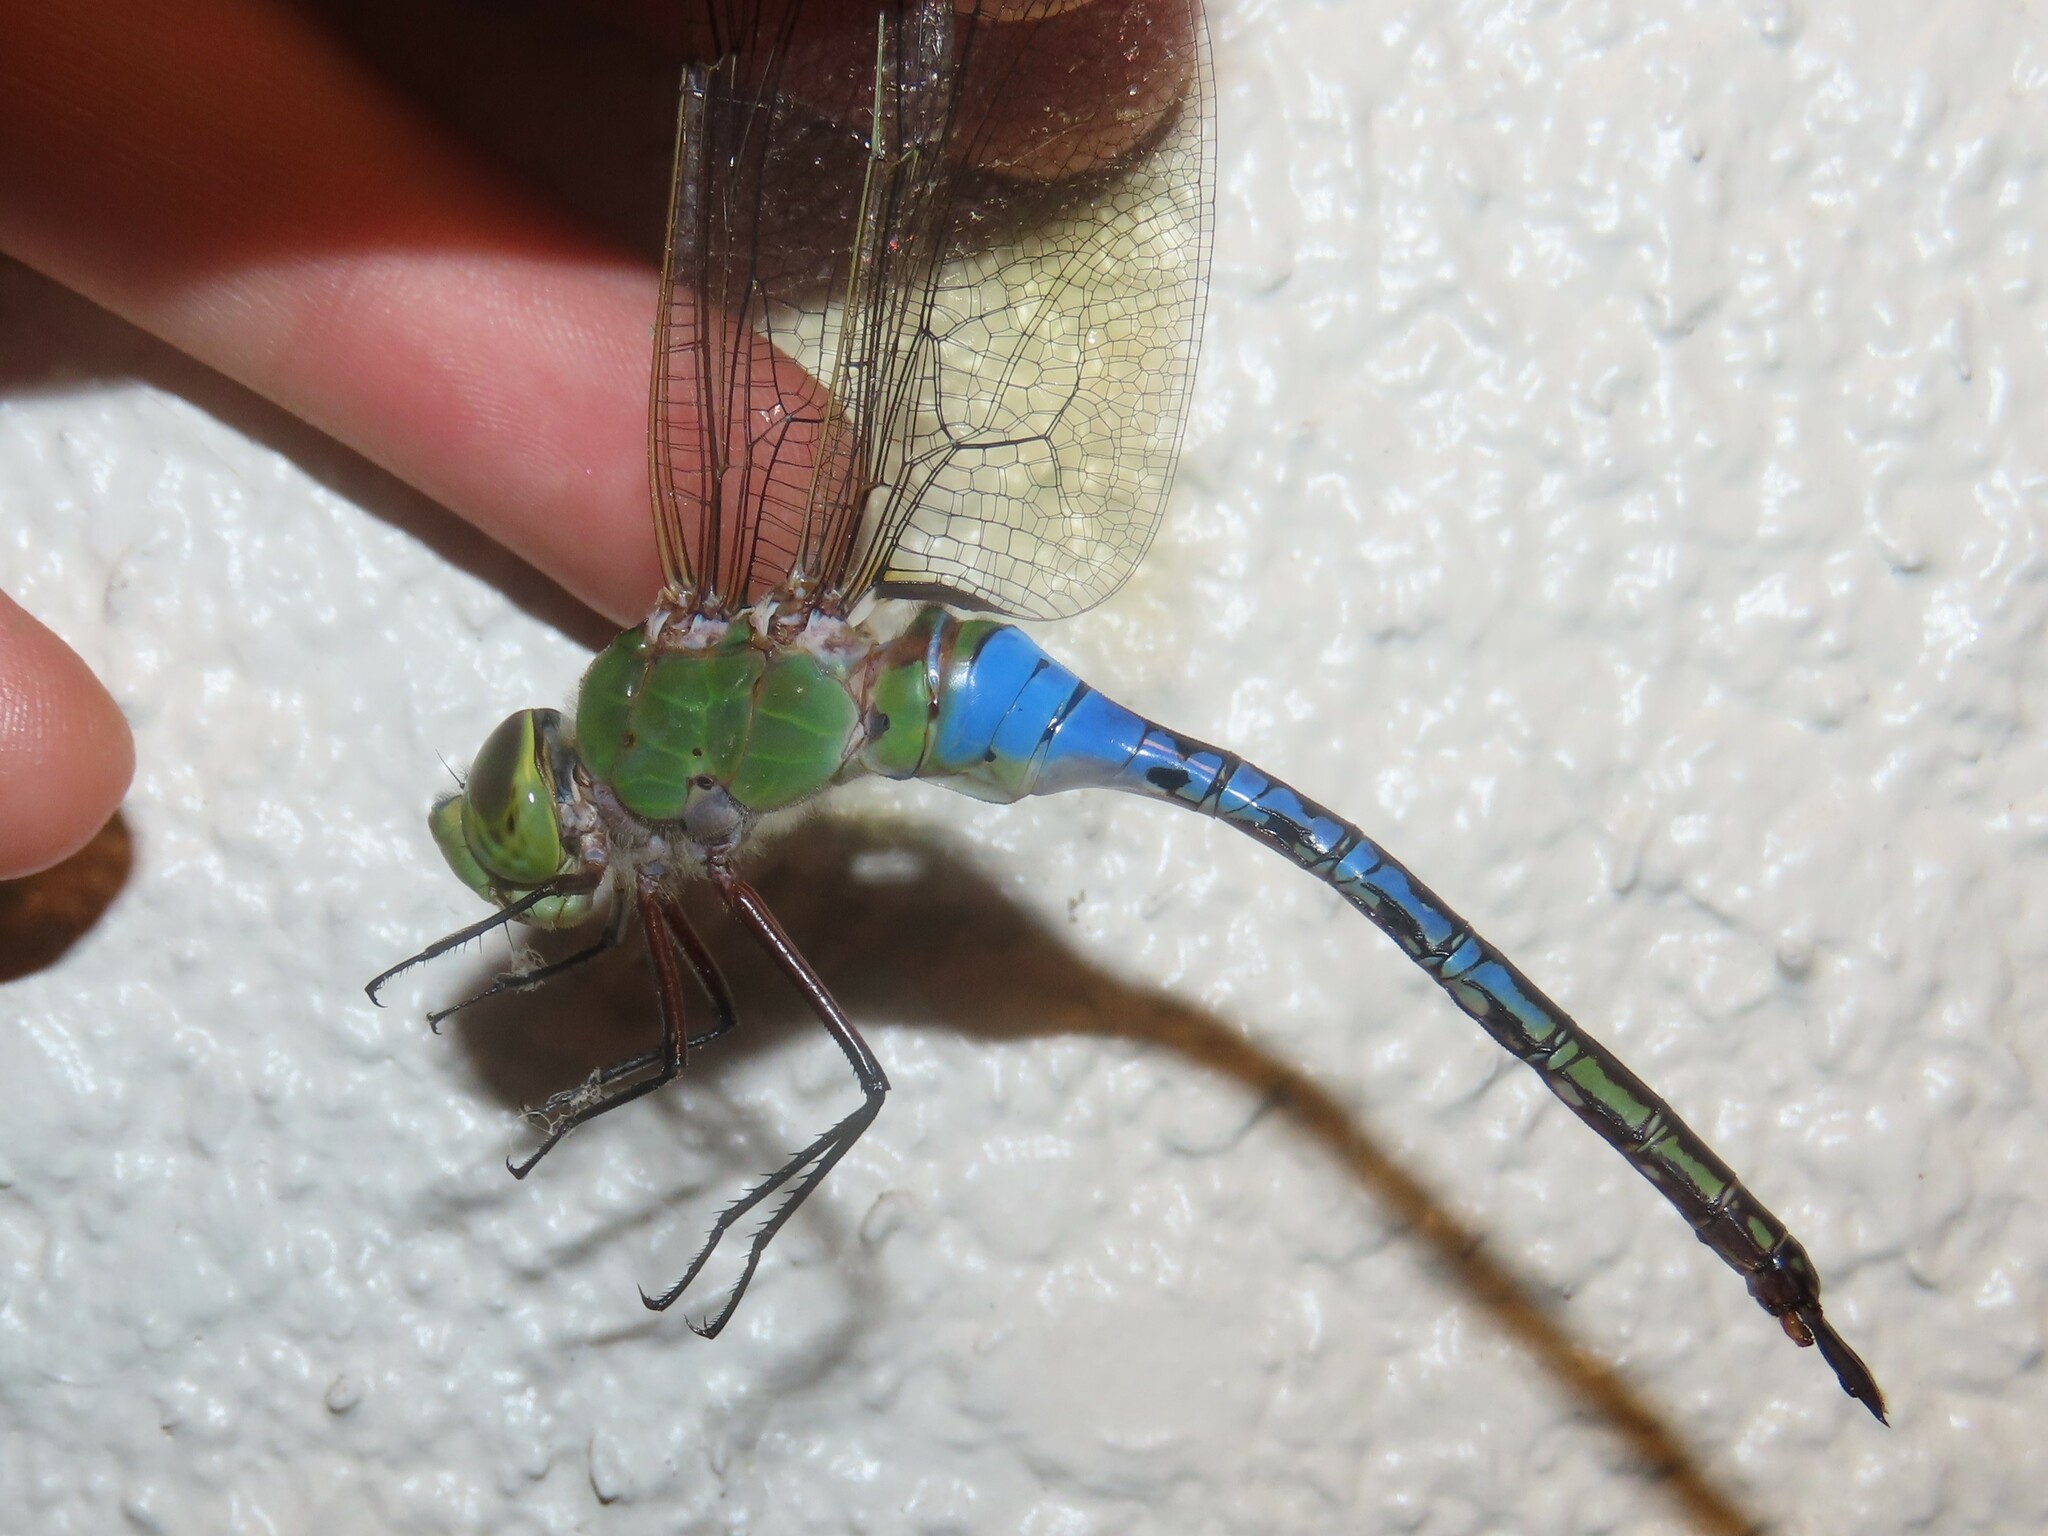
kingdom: Animalia
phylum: Arthropoda
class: Insecta
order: Odonata
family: Aeshnidae
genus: Anax
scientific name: Anax junius
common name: Common green darner
